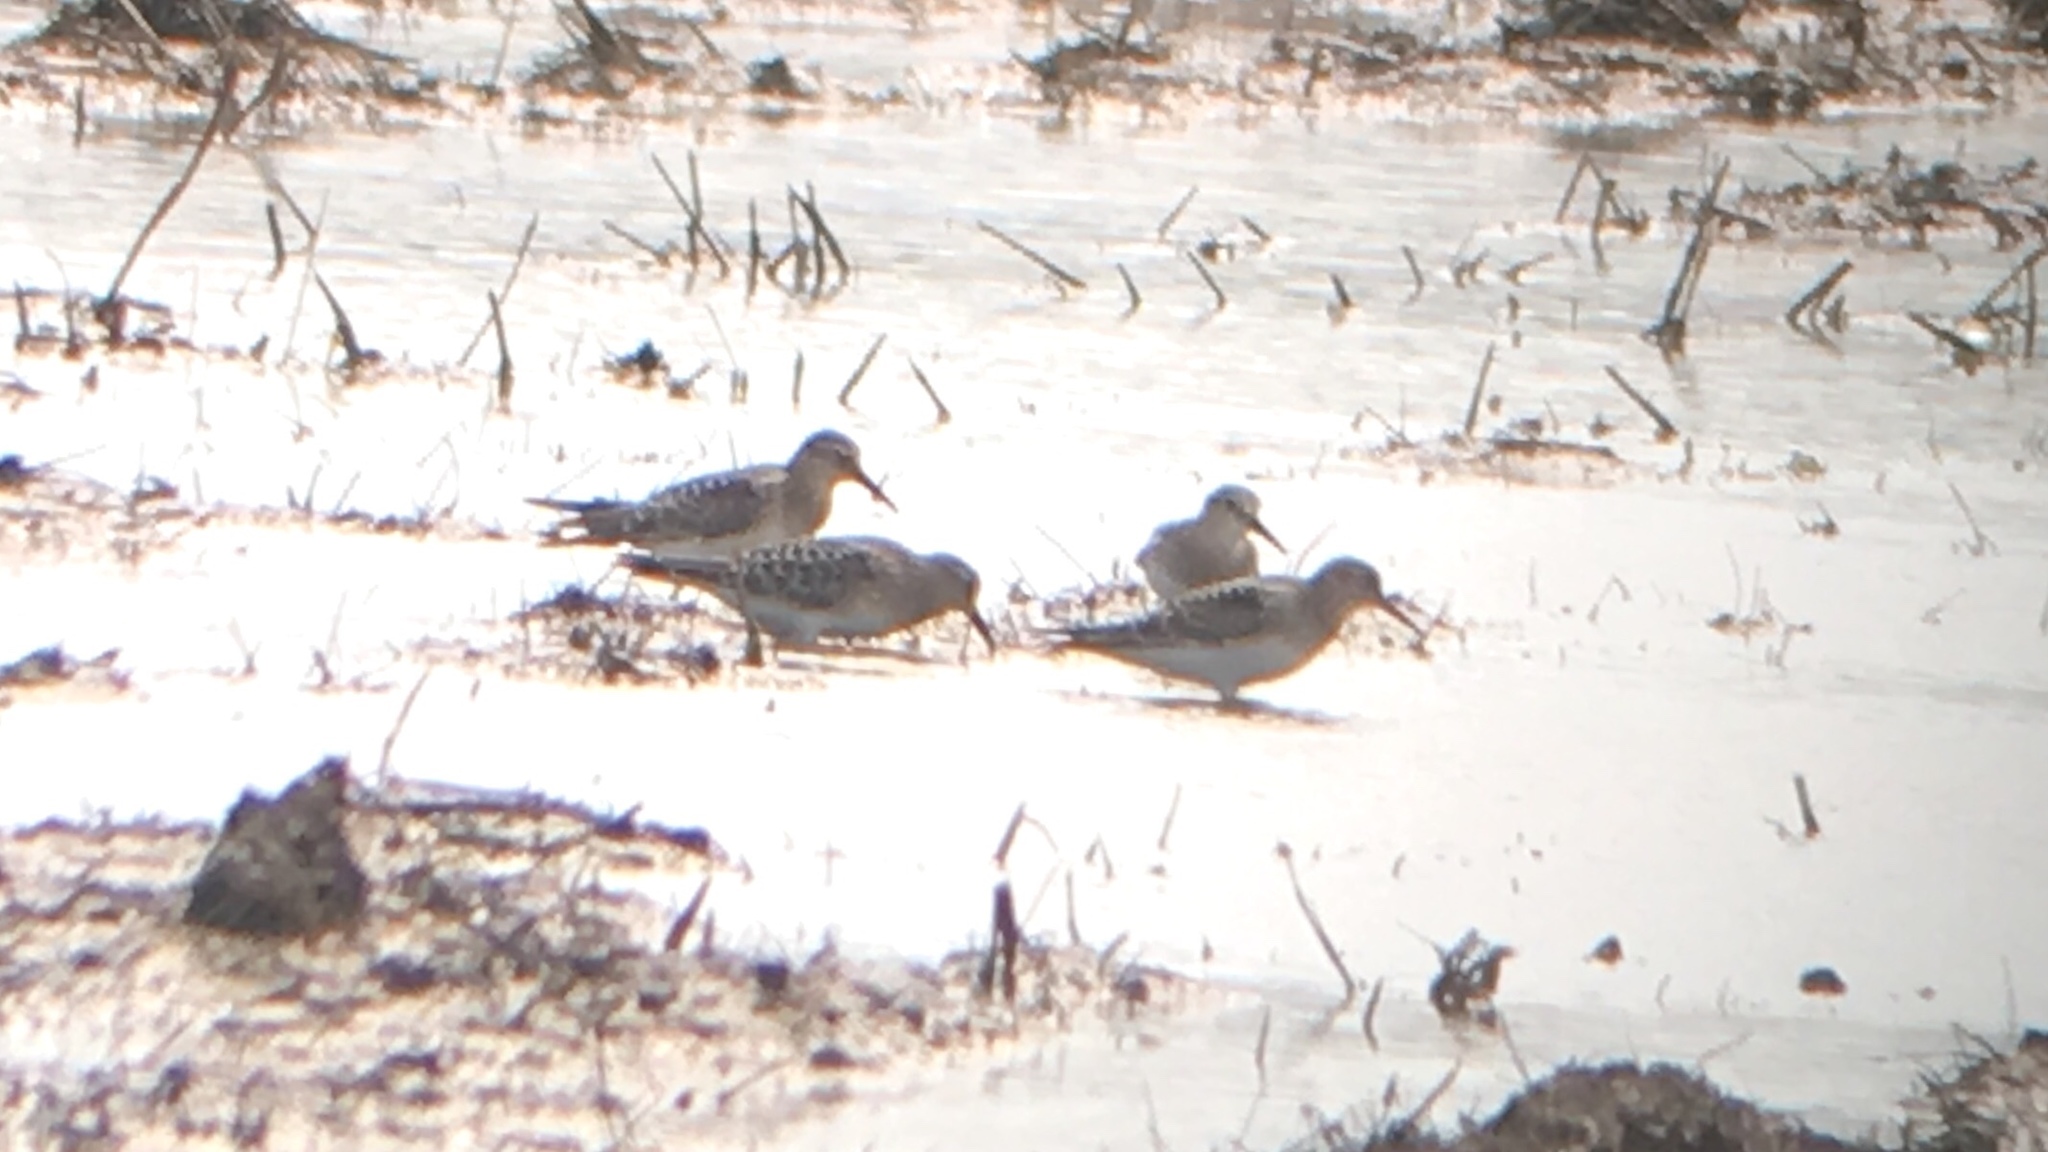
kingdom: Animalia
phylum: Chordata
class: Aves
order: Charadriiformes
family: Scolopacidae
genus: Calidris
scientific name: Calidris bairdii
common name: Baird's sandpiper
